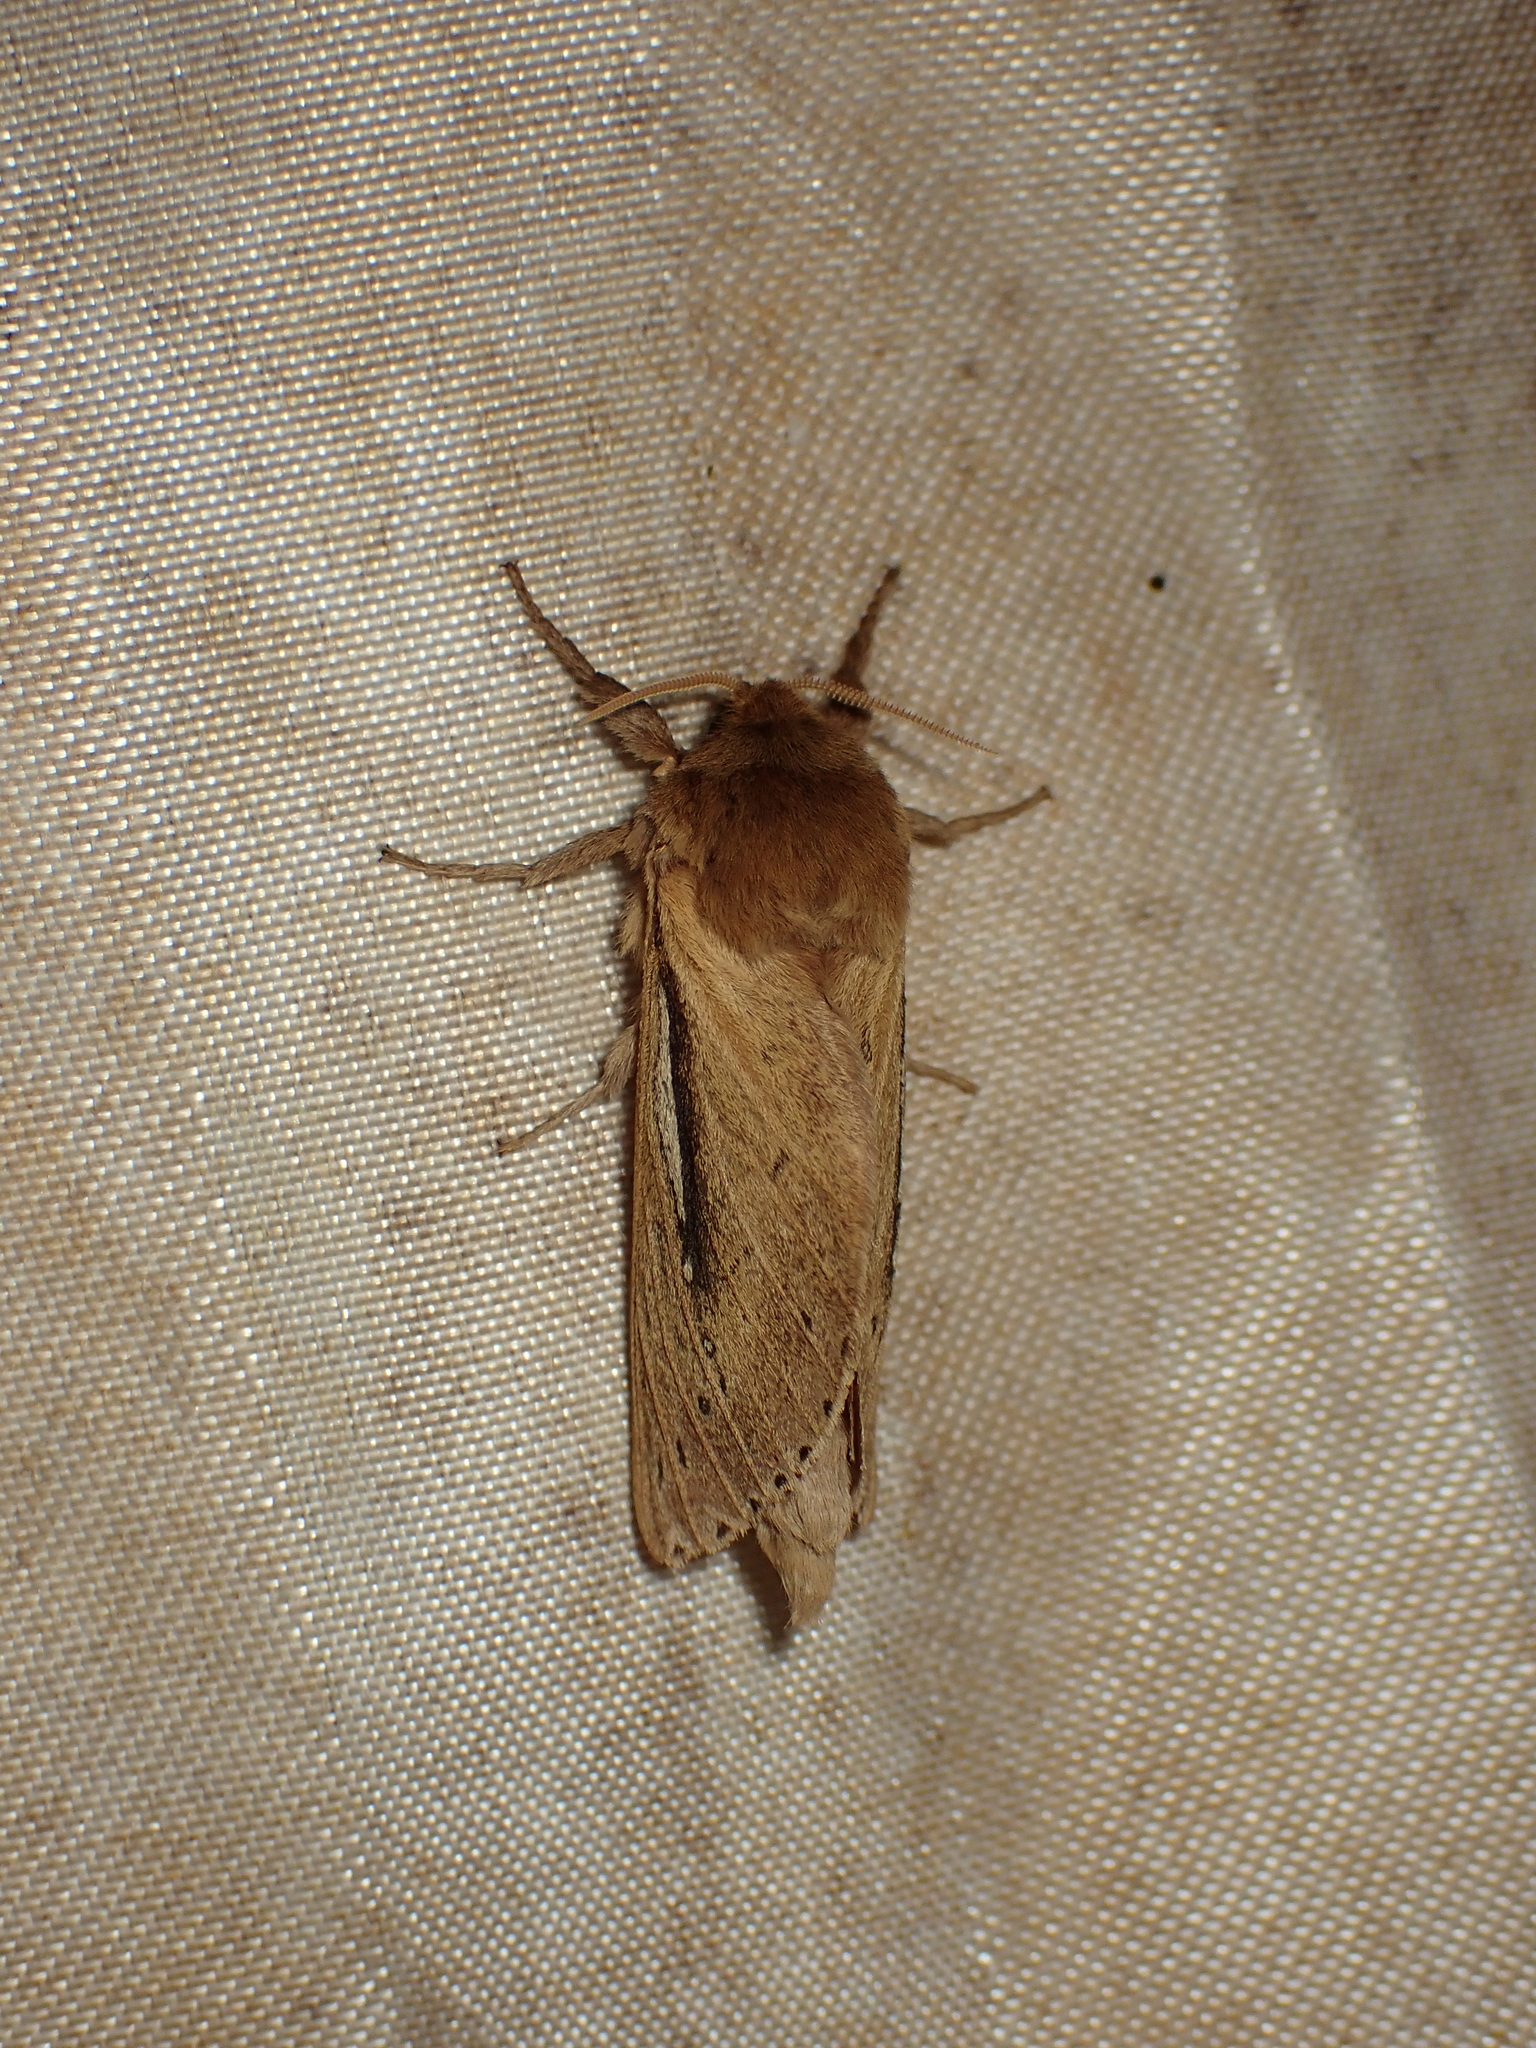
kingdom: Animalia
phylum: Arthropoda
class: Insecta
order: Lepidoptera
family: Hepialidae
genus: Wiseana
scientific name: Wiseana umbraculatus
